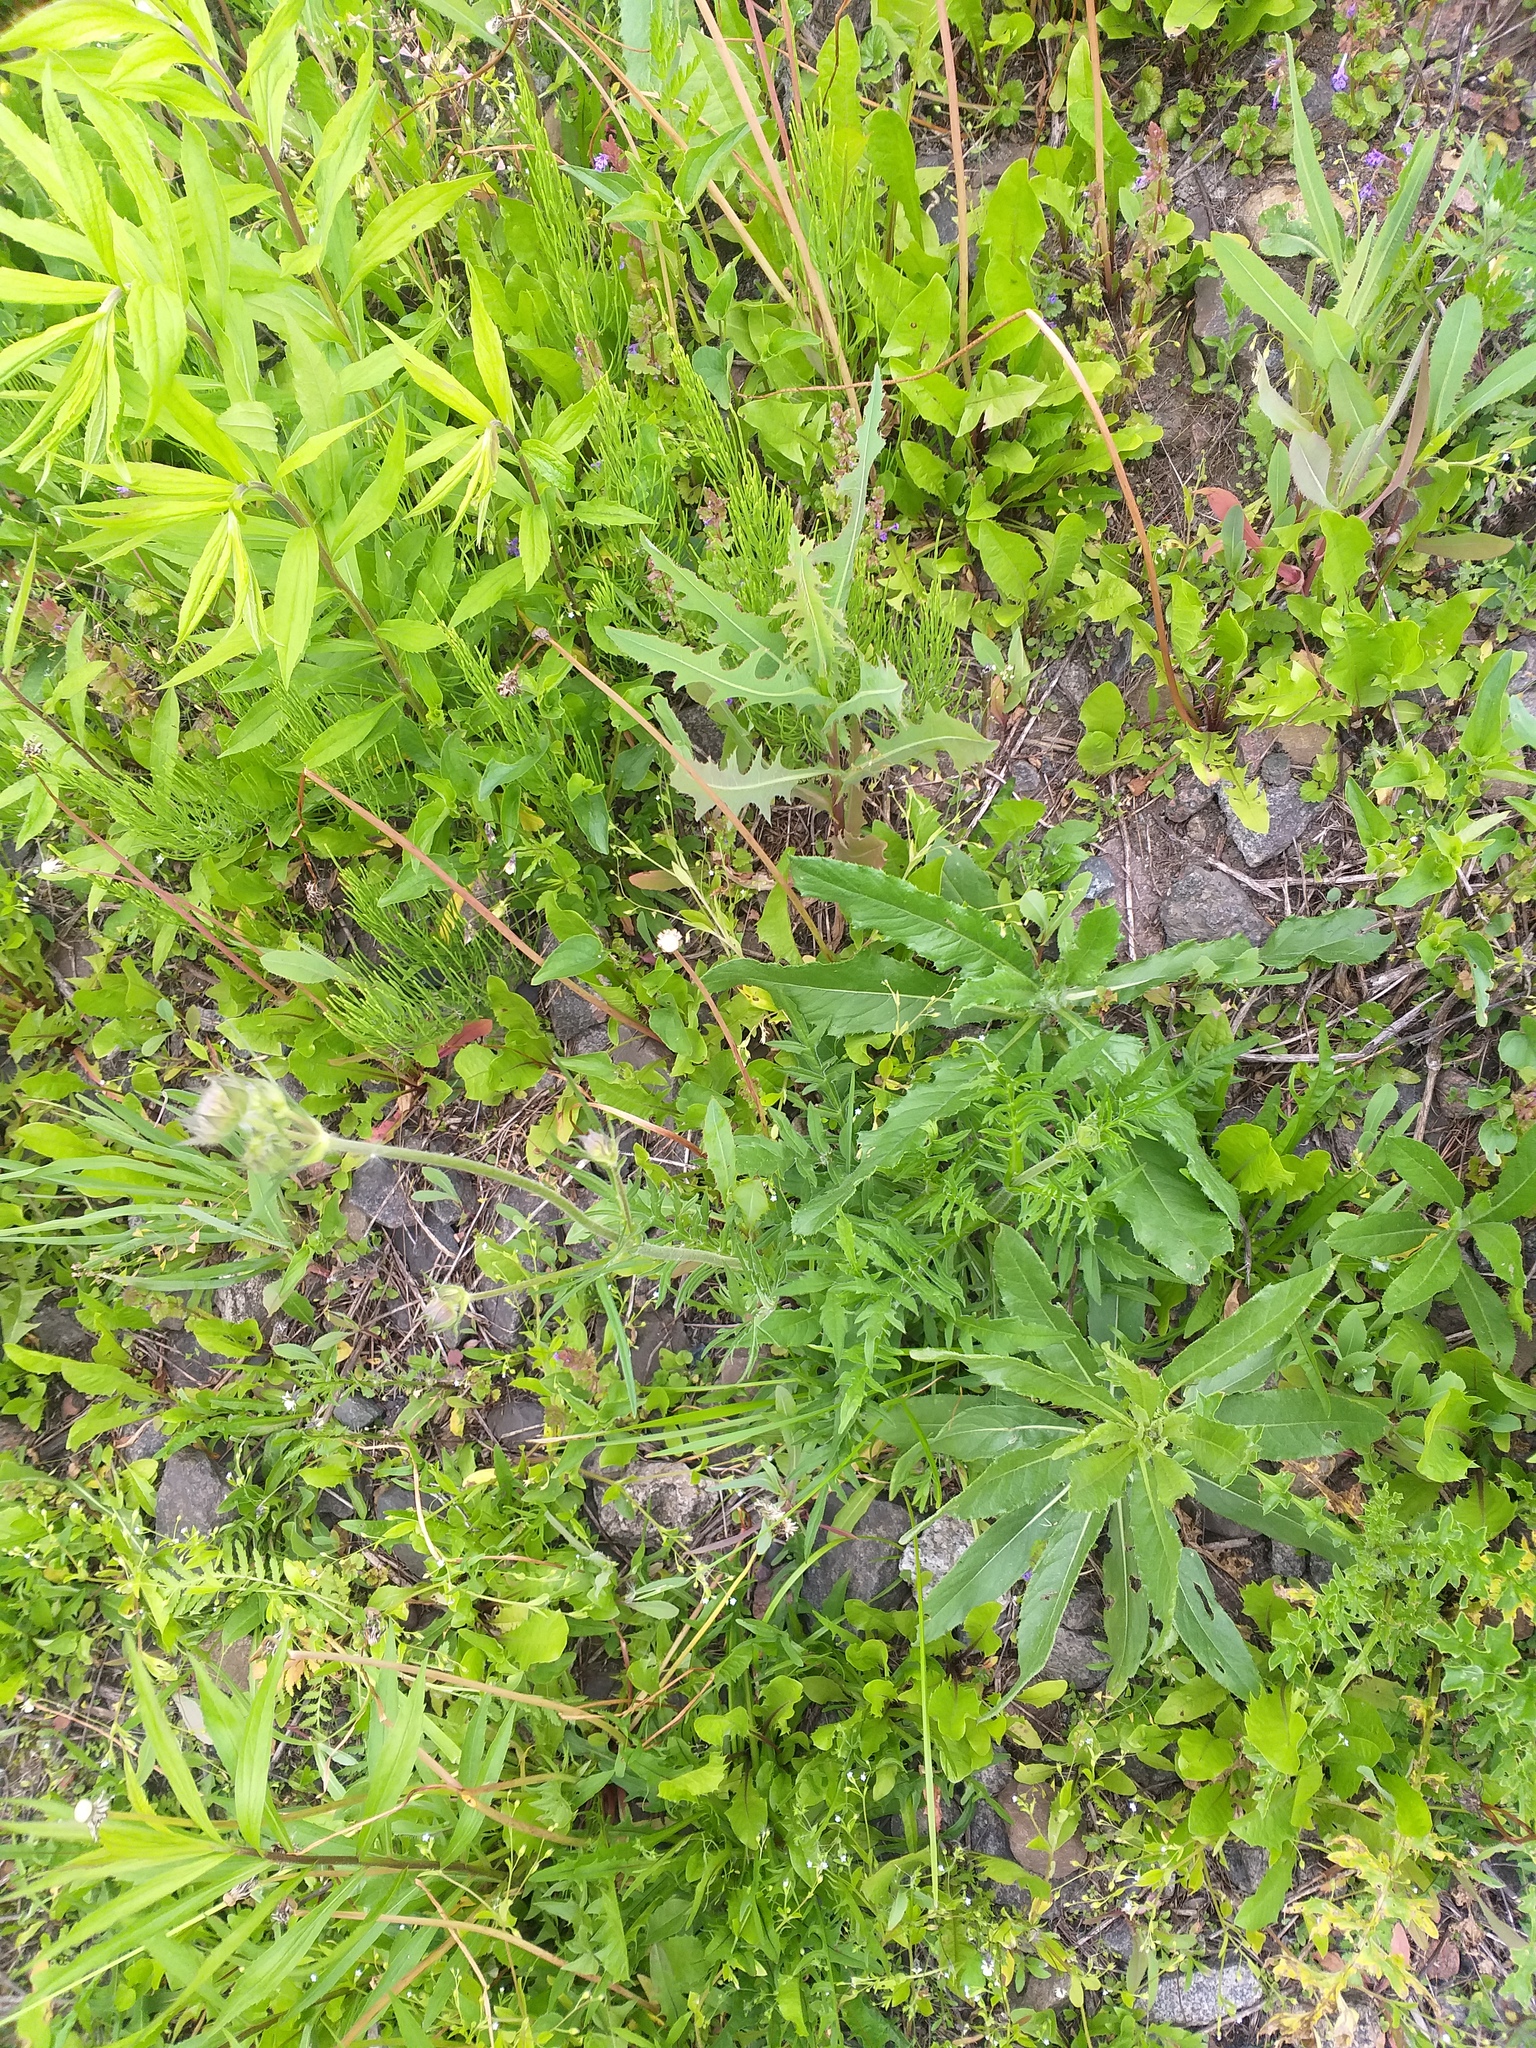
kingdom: Plantae
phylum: Tracheophyta
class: Magnoliopsida
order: Dipsacales
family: Caprifoliaceae
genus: Knautia
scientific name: Knautia arvensis
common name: Field scabiosa
